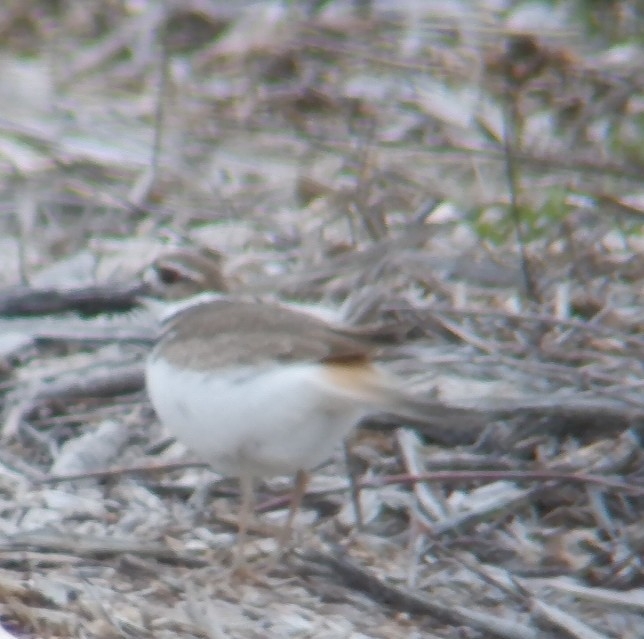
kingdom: Animalia
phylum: Chordata
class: Aves
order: Charadriiformes
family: Charadriidae
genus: Charadrius
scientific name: Charadrius vociferus
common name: Killdeer
